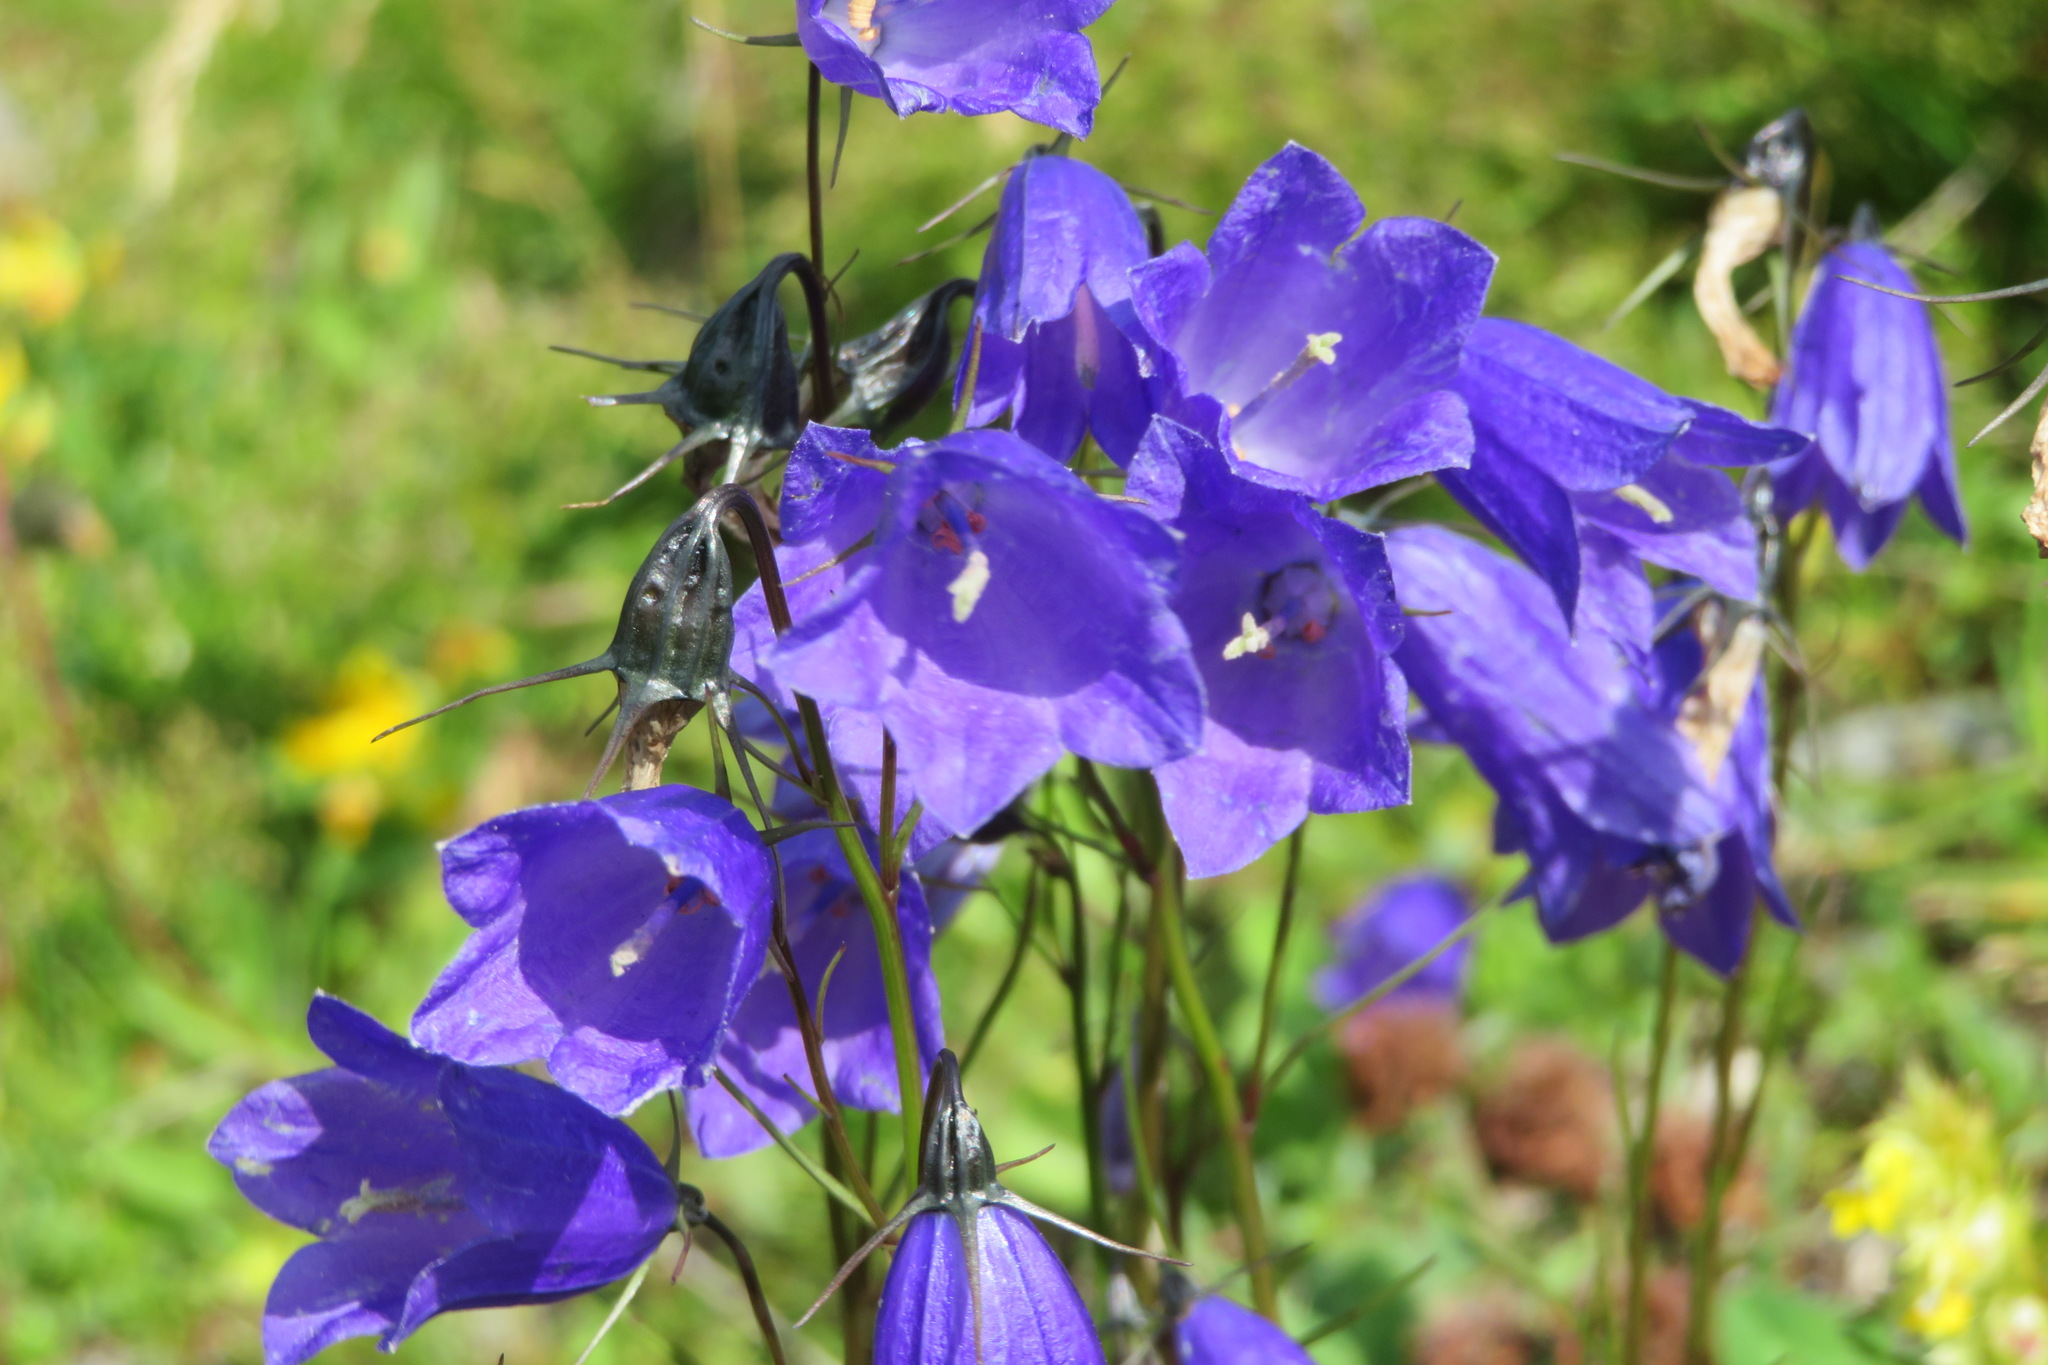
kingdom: Plantae
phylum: Tracheophyta
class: Magnoliopsida
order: Asterales
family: Campanulaceae
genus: Campanula
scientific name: Campanula scheuchzeri
